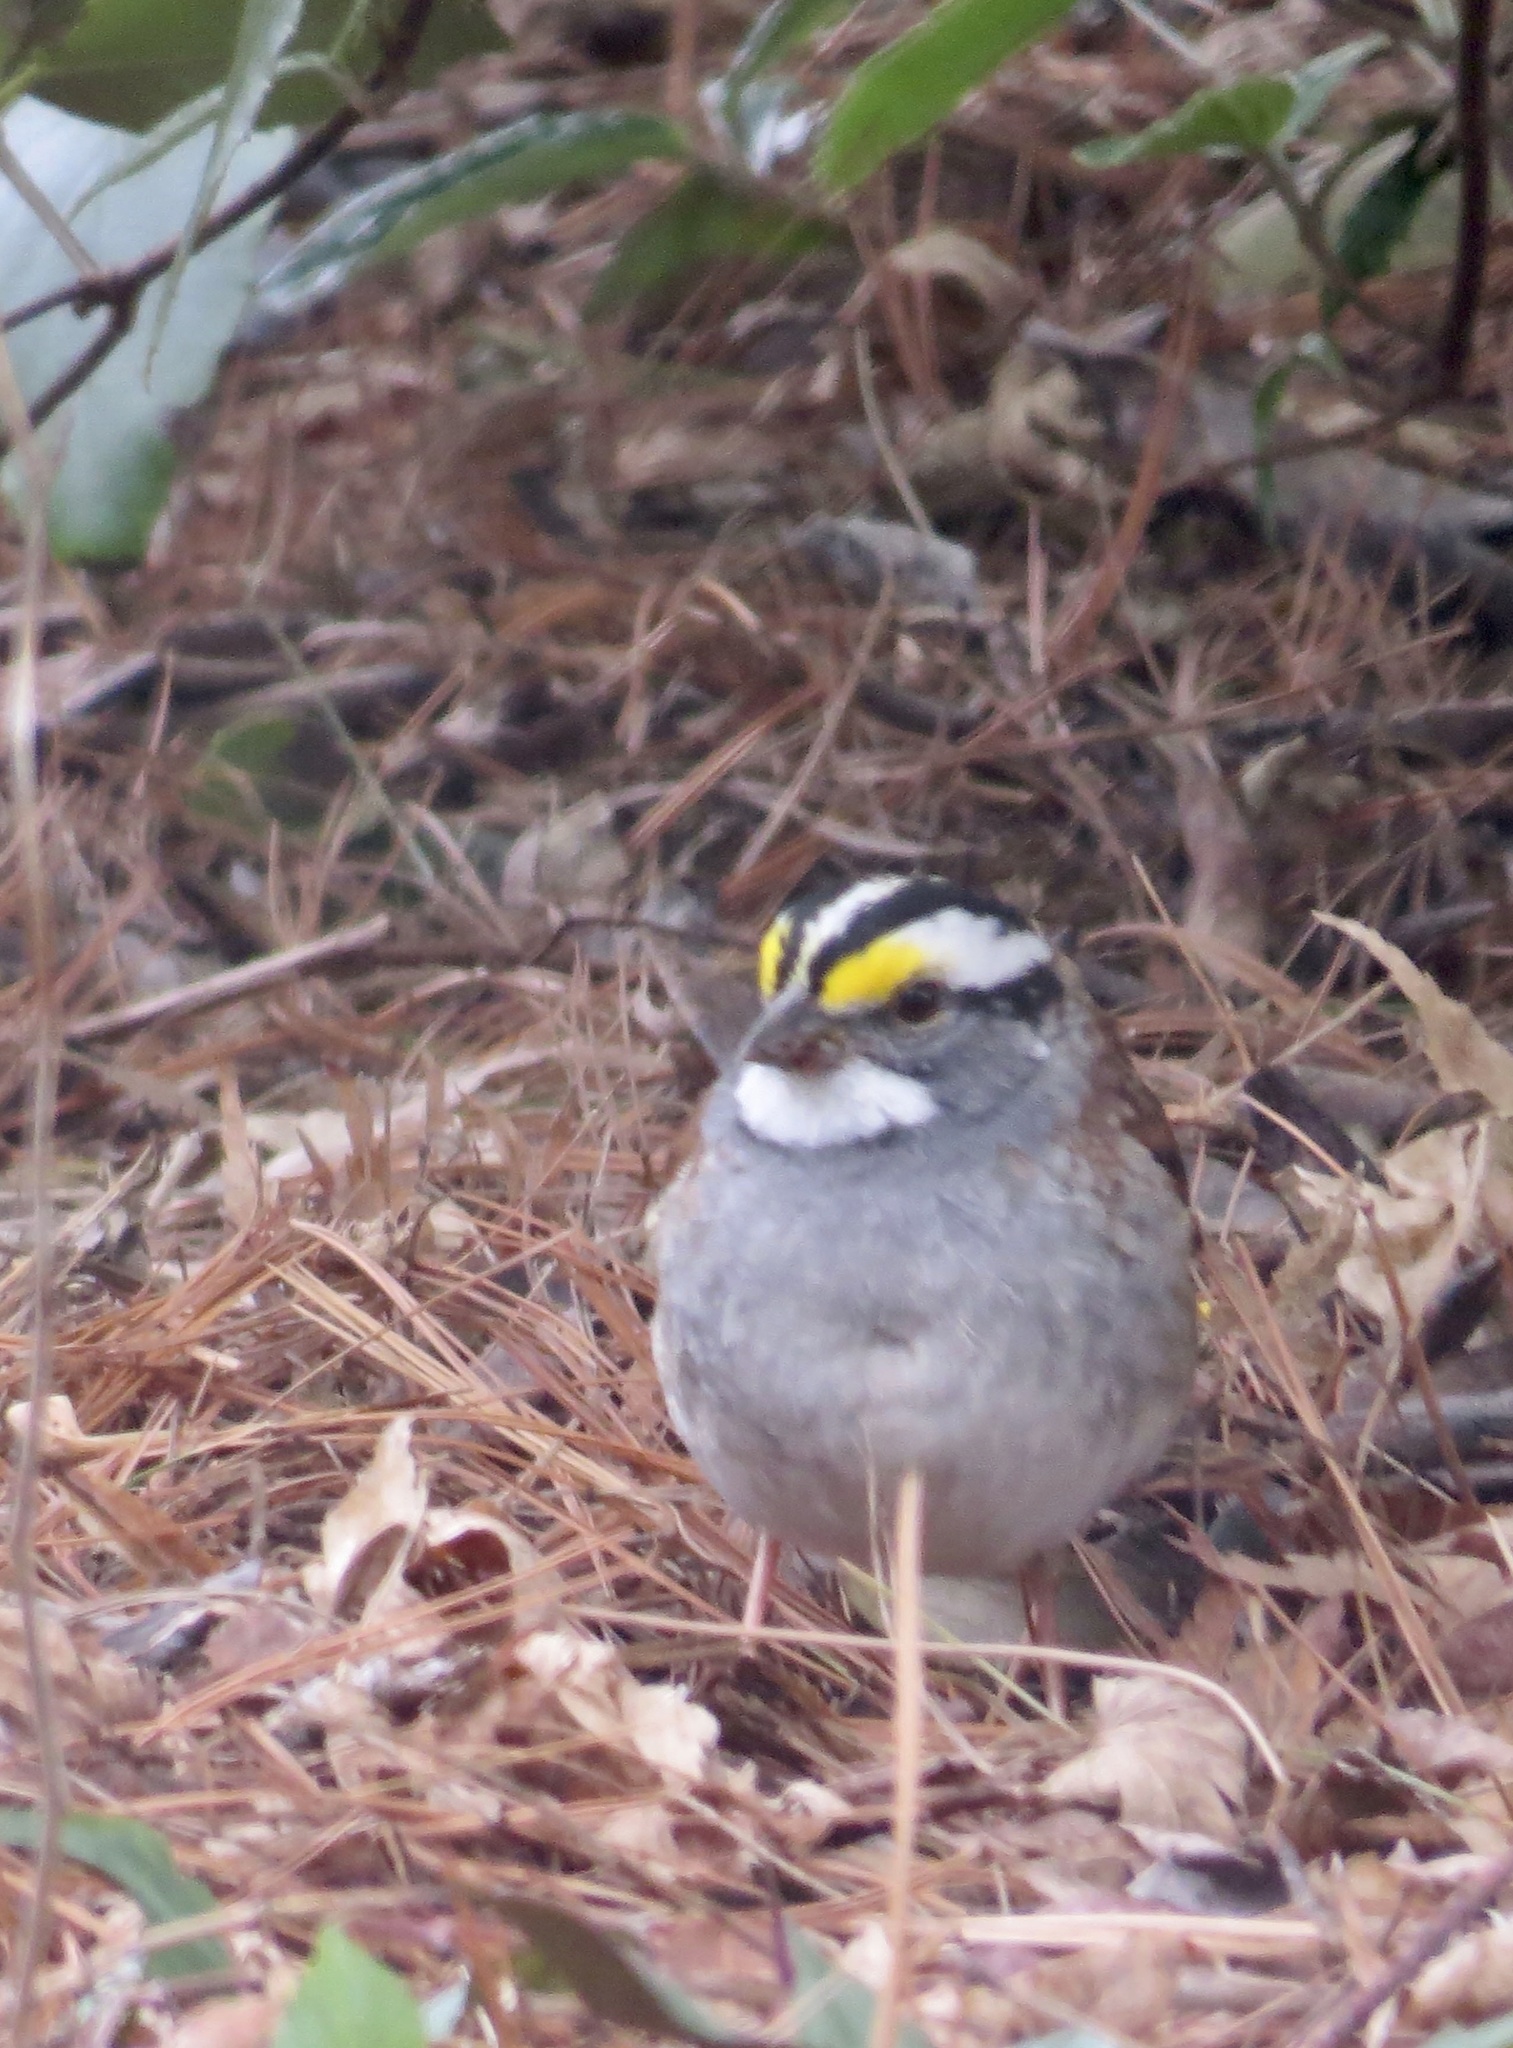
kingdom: Animalia
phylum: Chordata
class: Aves
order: Passeriformes
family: Passerellidae
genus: Zonotrichia
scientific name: Zonotrichia albicollis
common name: White-throated sparrow
